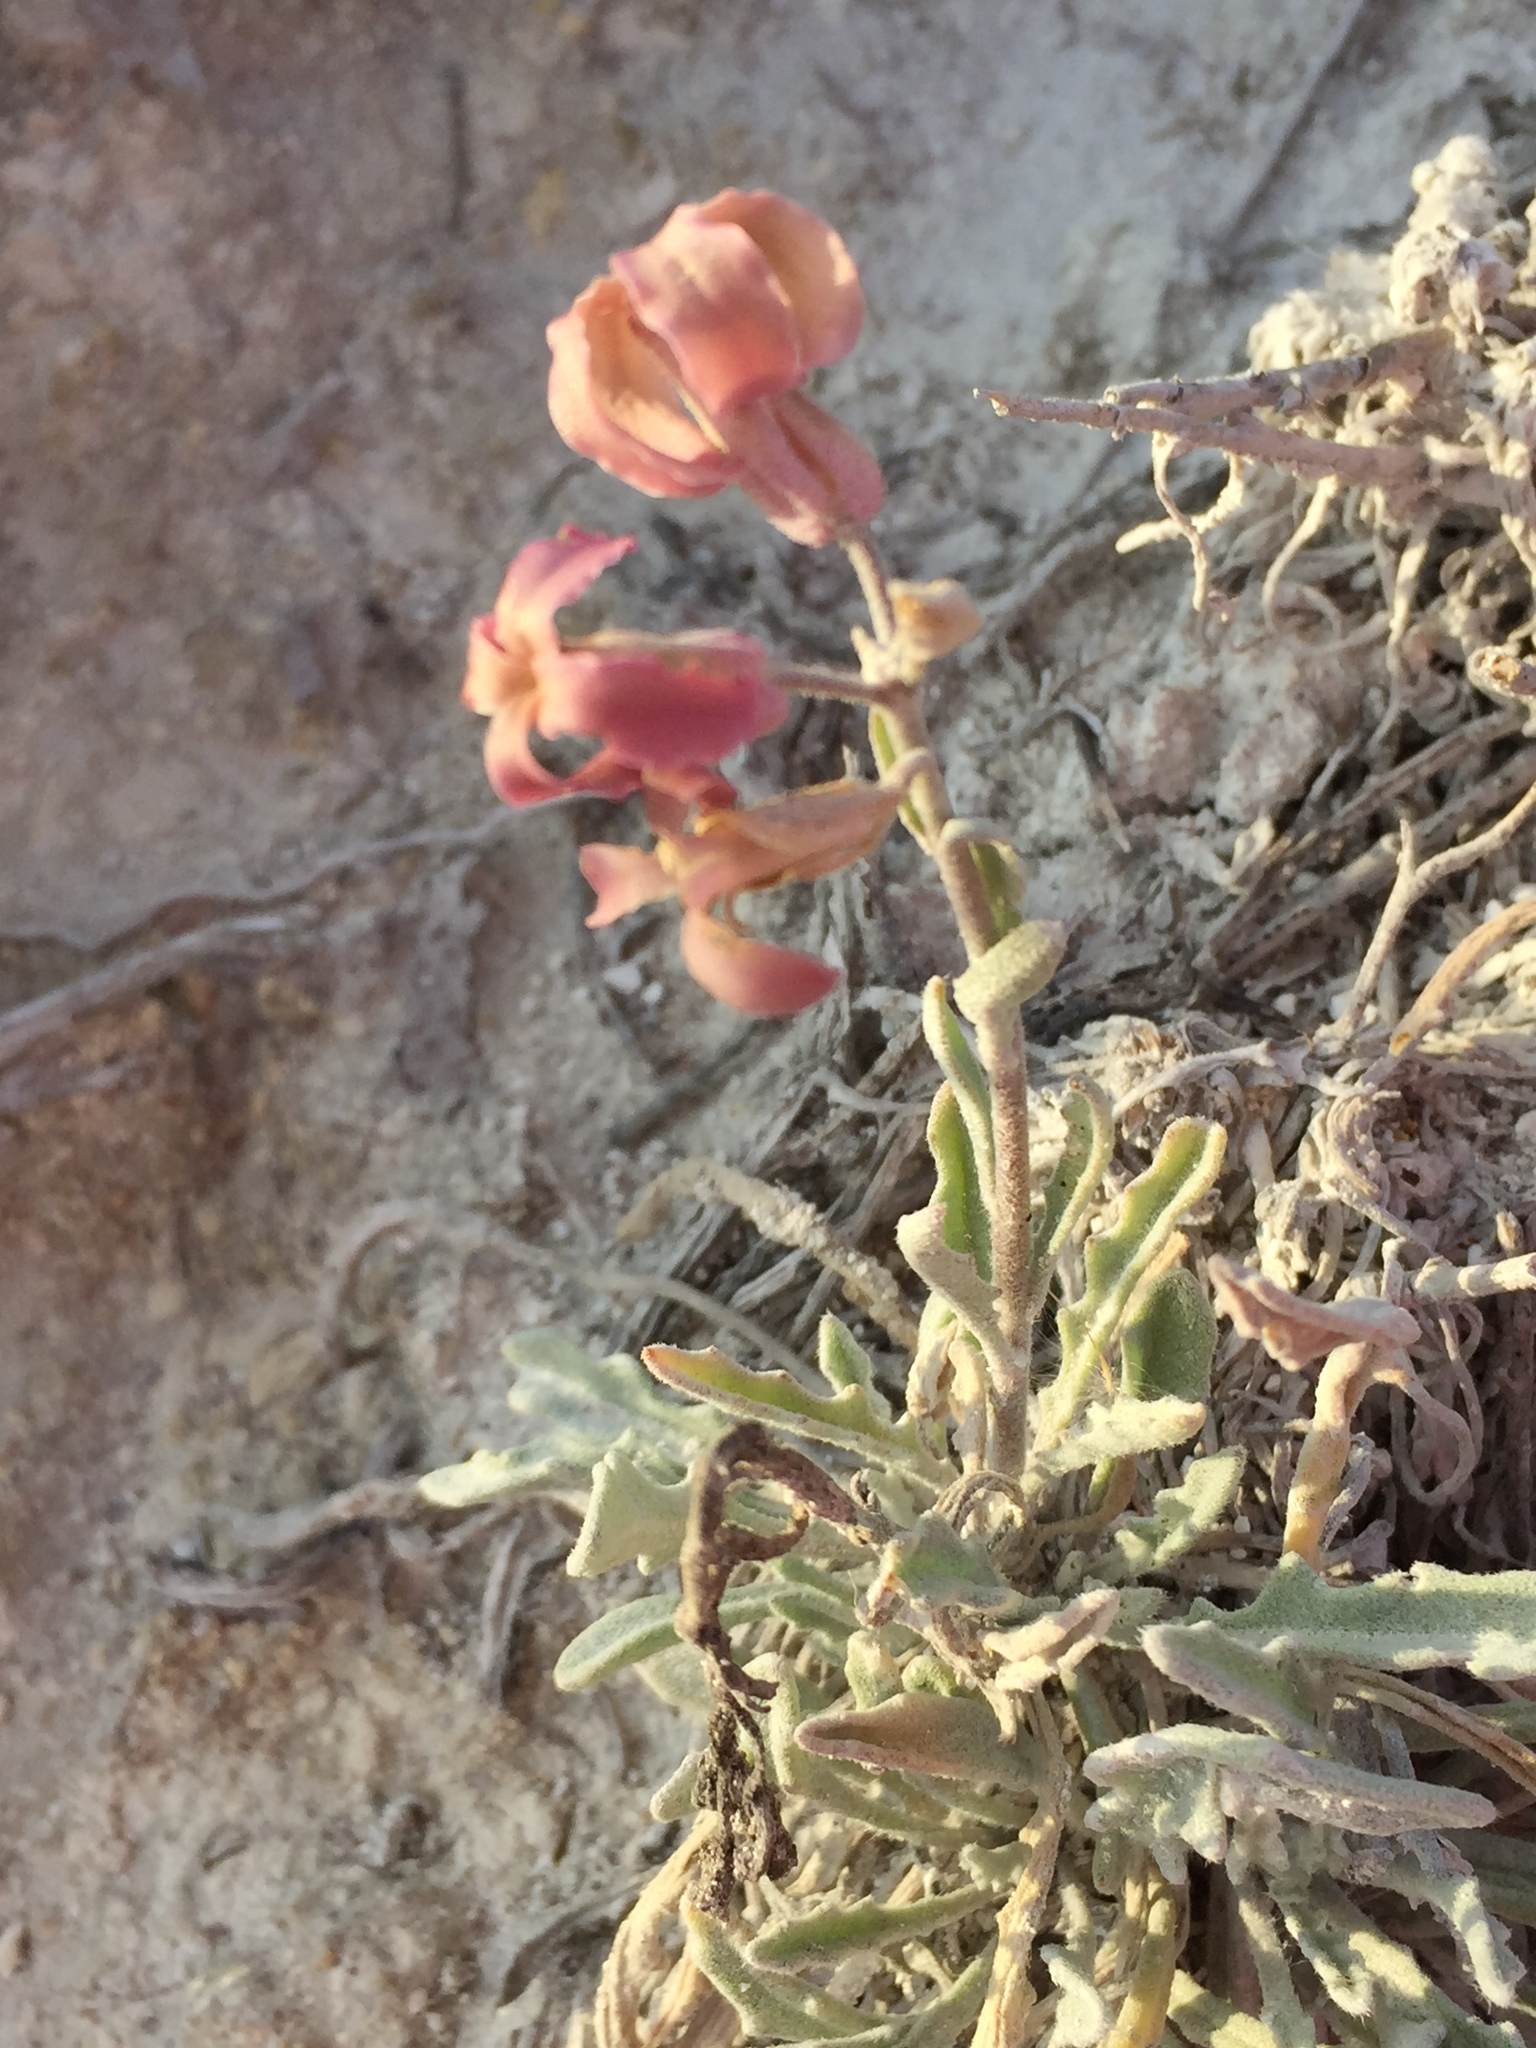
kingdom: Plantae
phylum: Tracheophyta
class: Magnoliopsida
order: Brassicales
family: Brassicaceae
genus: Matthiola
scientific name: Matthiola fragrans
